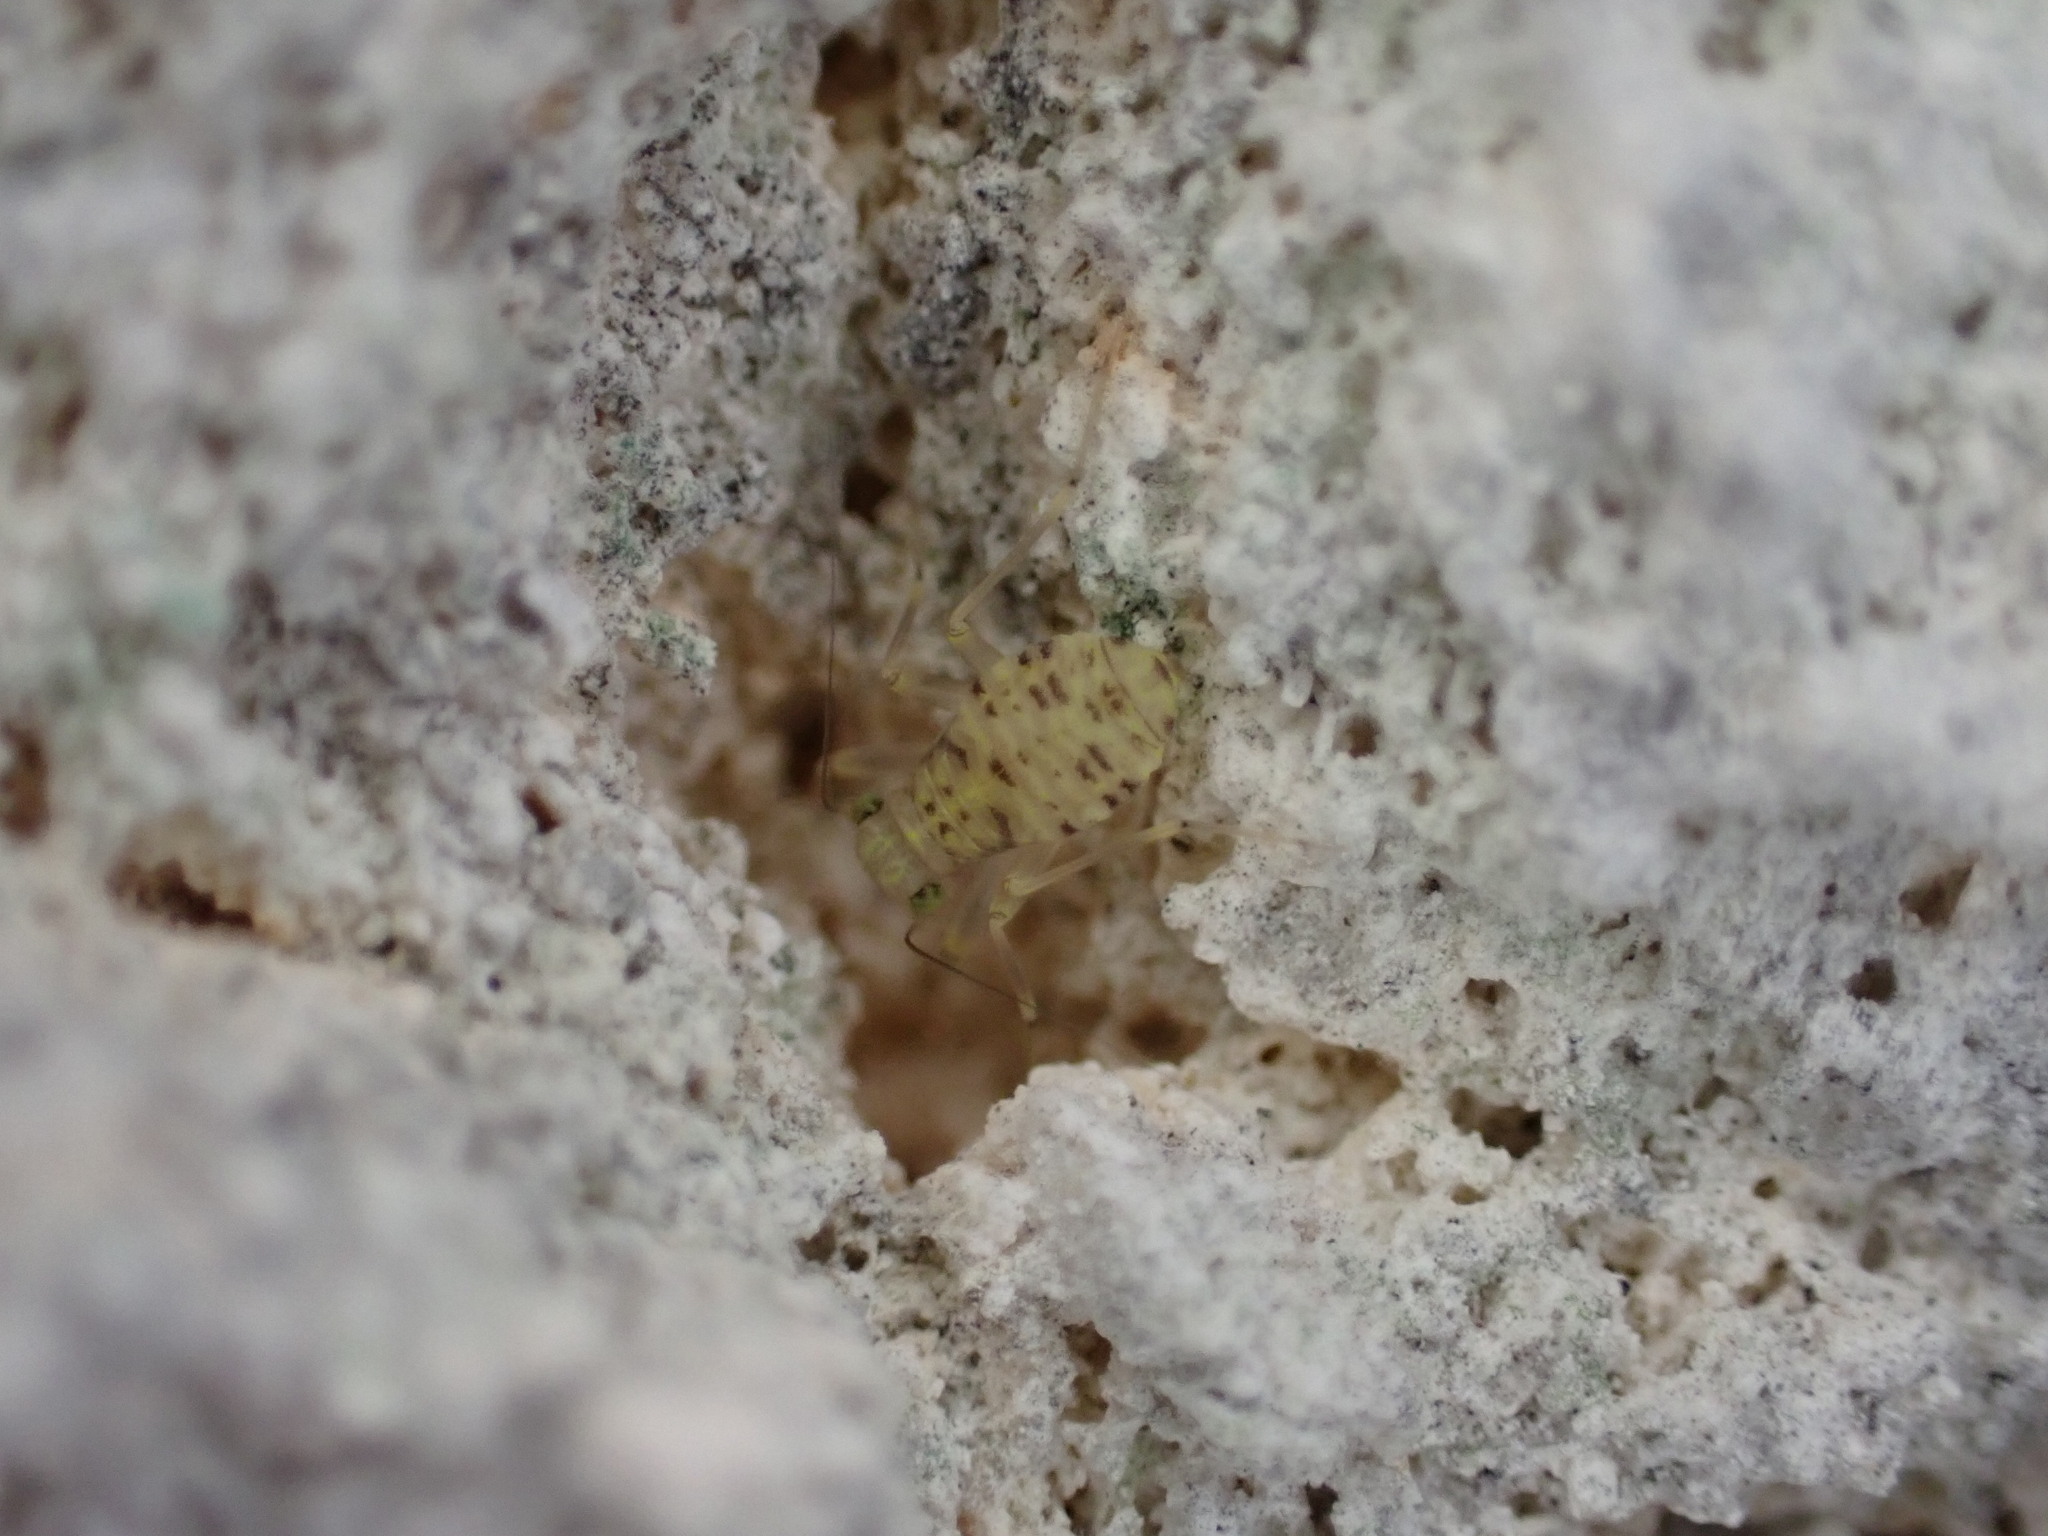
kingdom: Animalia
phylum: Arthropoda
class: Insecta
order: Psocodea
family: Prionoglarididae
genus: Prionoglaris
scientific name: Prionoglaris stygia
